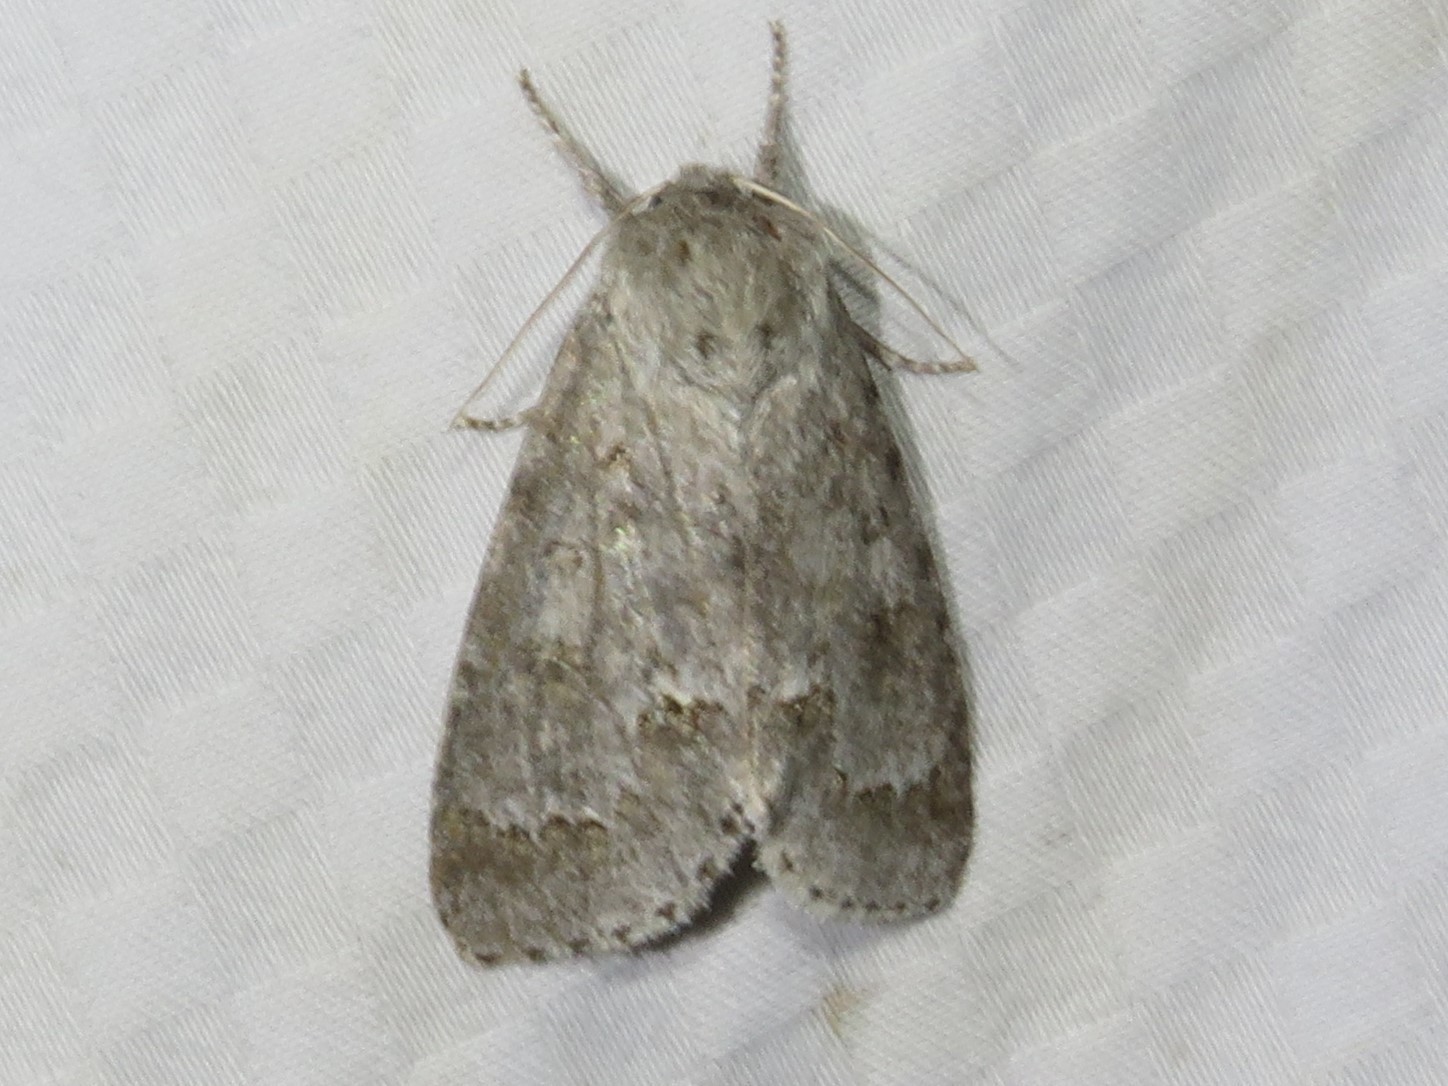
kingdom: Animalia
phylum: Arthropoda
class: Insecta
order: Lepidoptera
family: Noctuidae
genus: Acronicta
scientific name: Acronicta insita
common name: Large gray dagger
